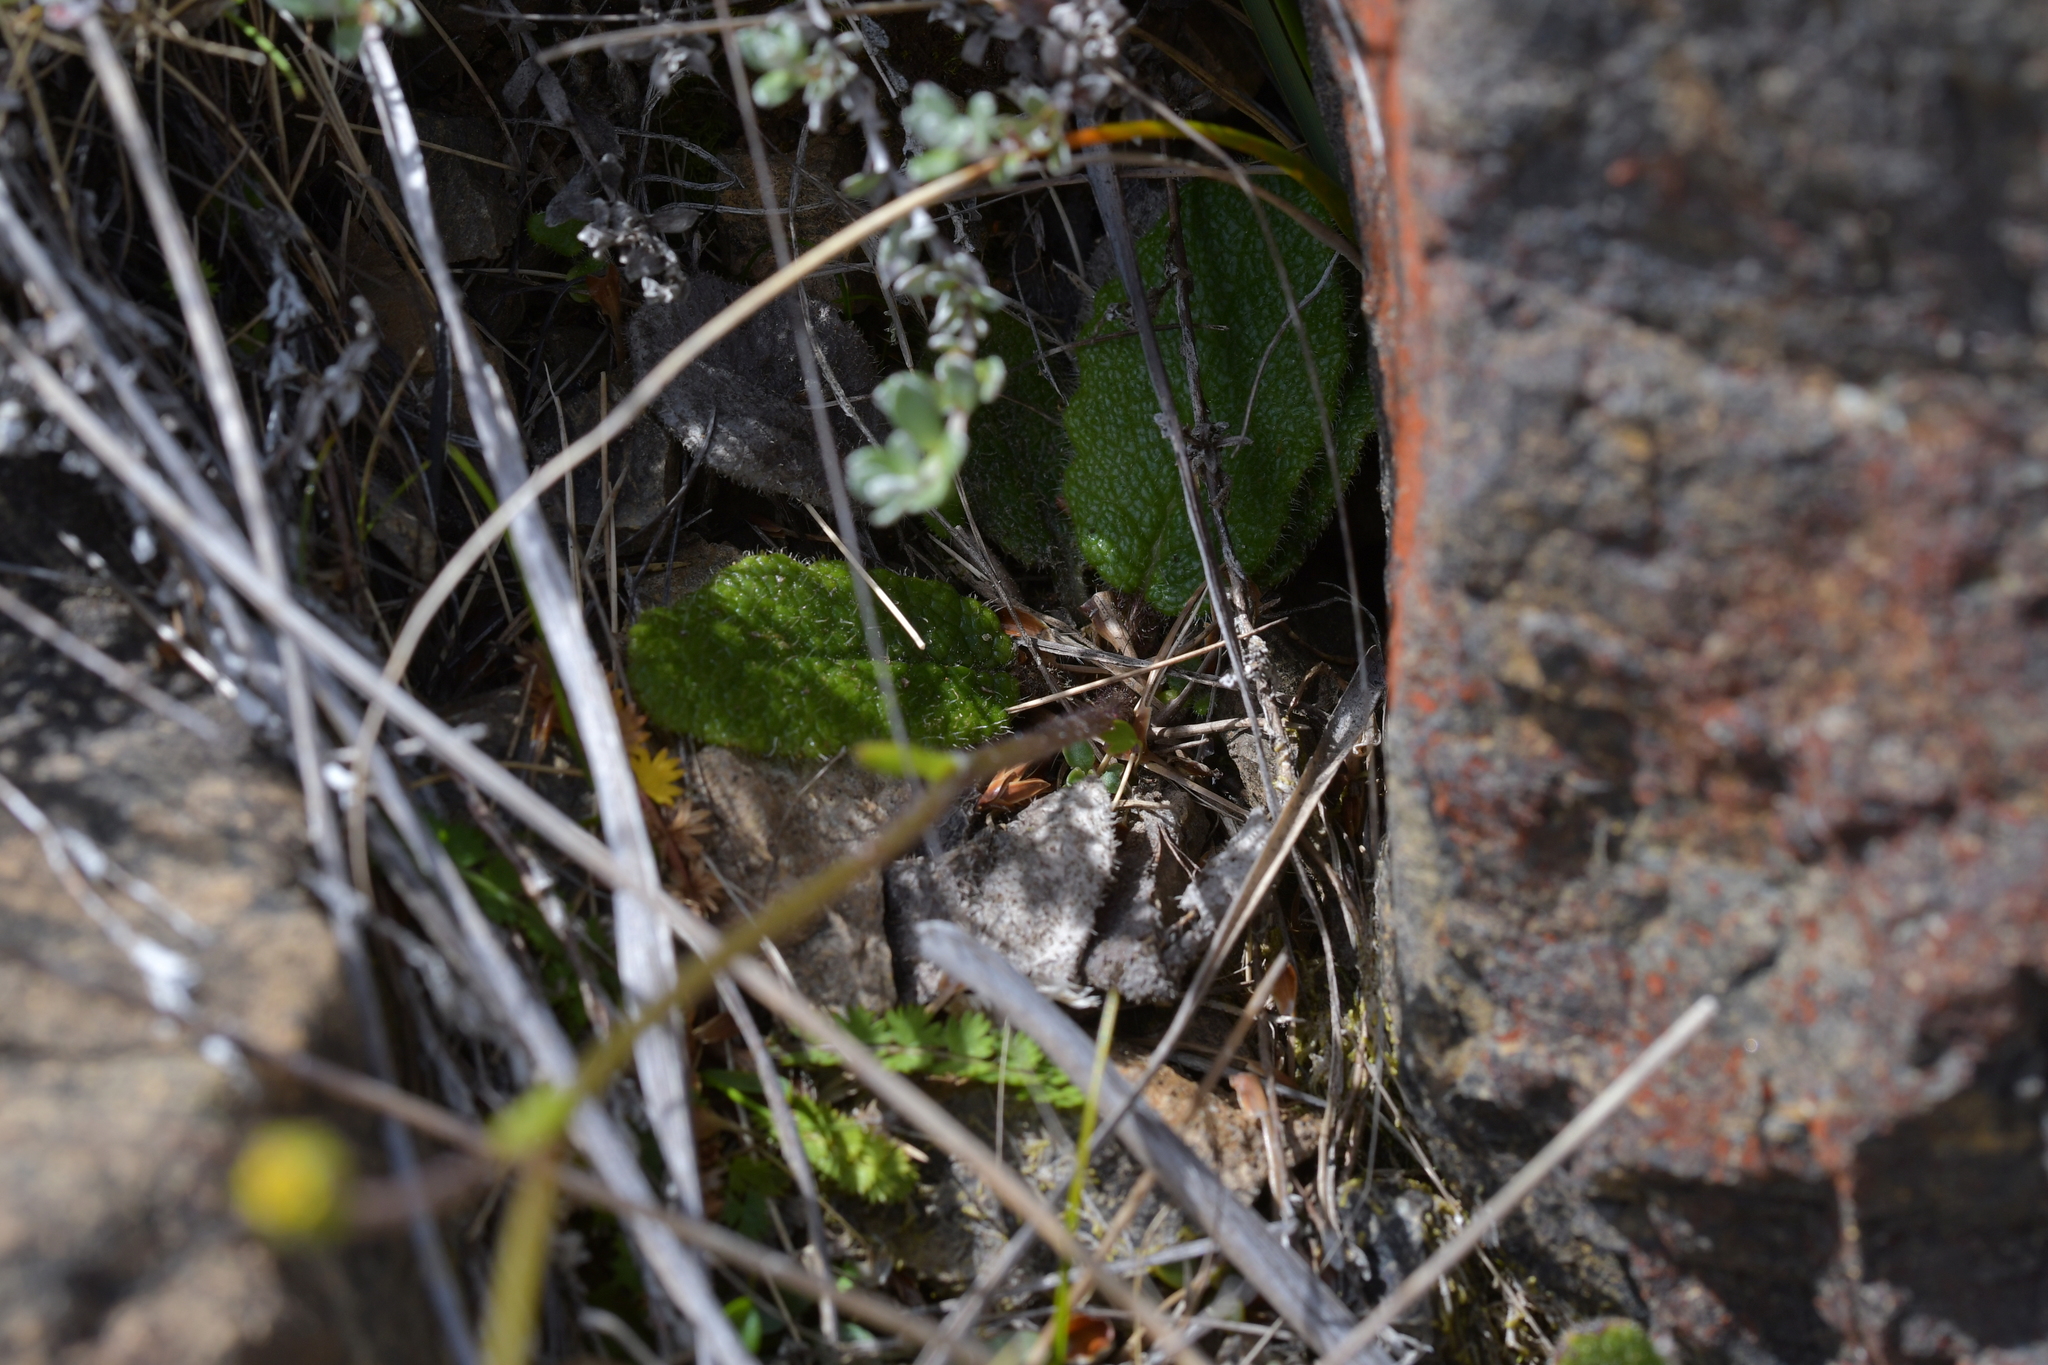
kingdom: Plantae
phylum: Tracheophyta
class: Magnoliopsida
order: Asterales
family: Asteraceae
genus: Brachyglottis
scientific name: Brachyglottis lagopus
